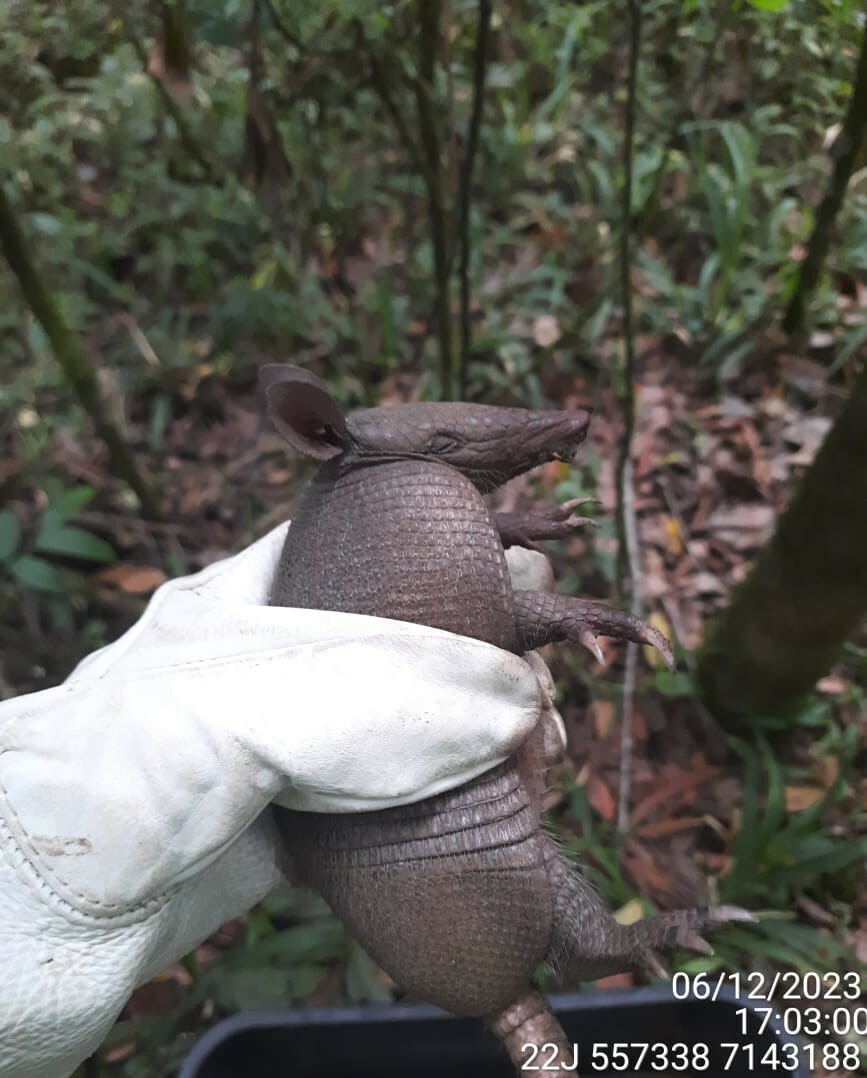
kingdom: Animalia
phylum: Chordata
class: Mammalia
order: Cingulata
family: Dasypodidae
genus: Dasypus
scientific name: Dasypus septemcinctus
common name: Seven-banded armadillo
